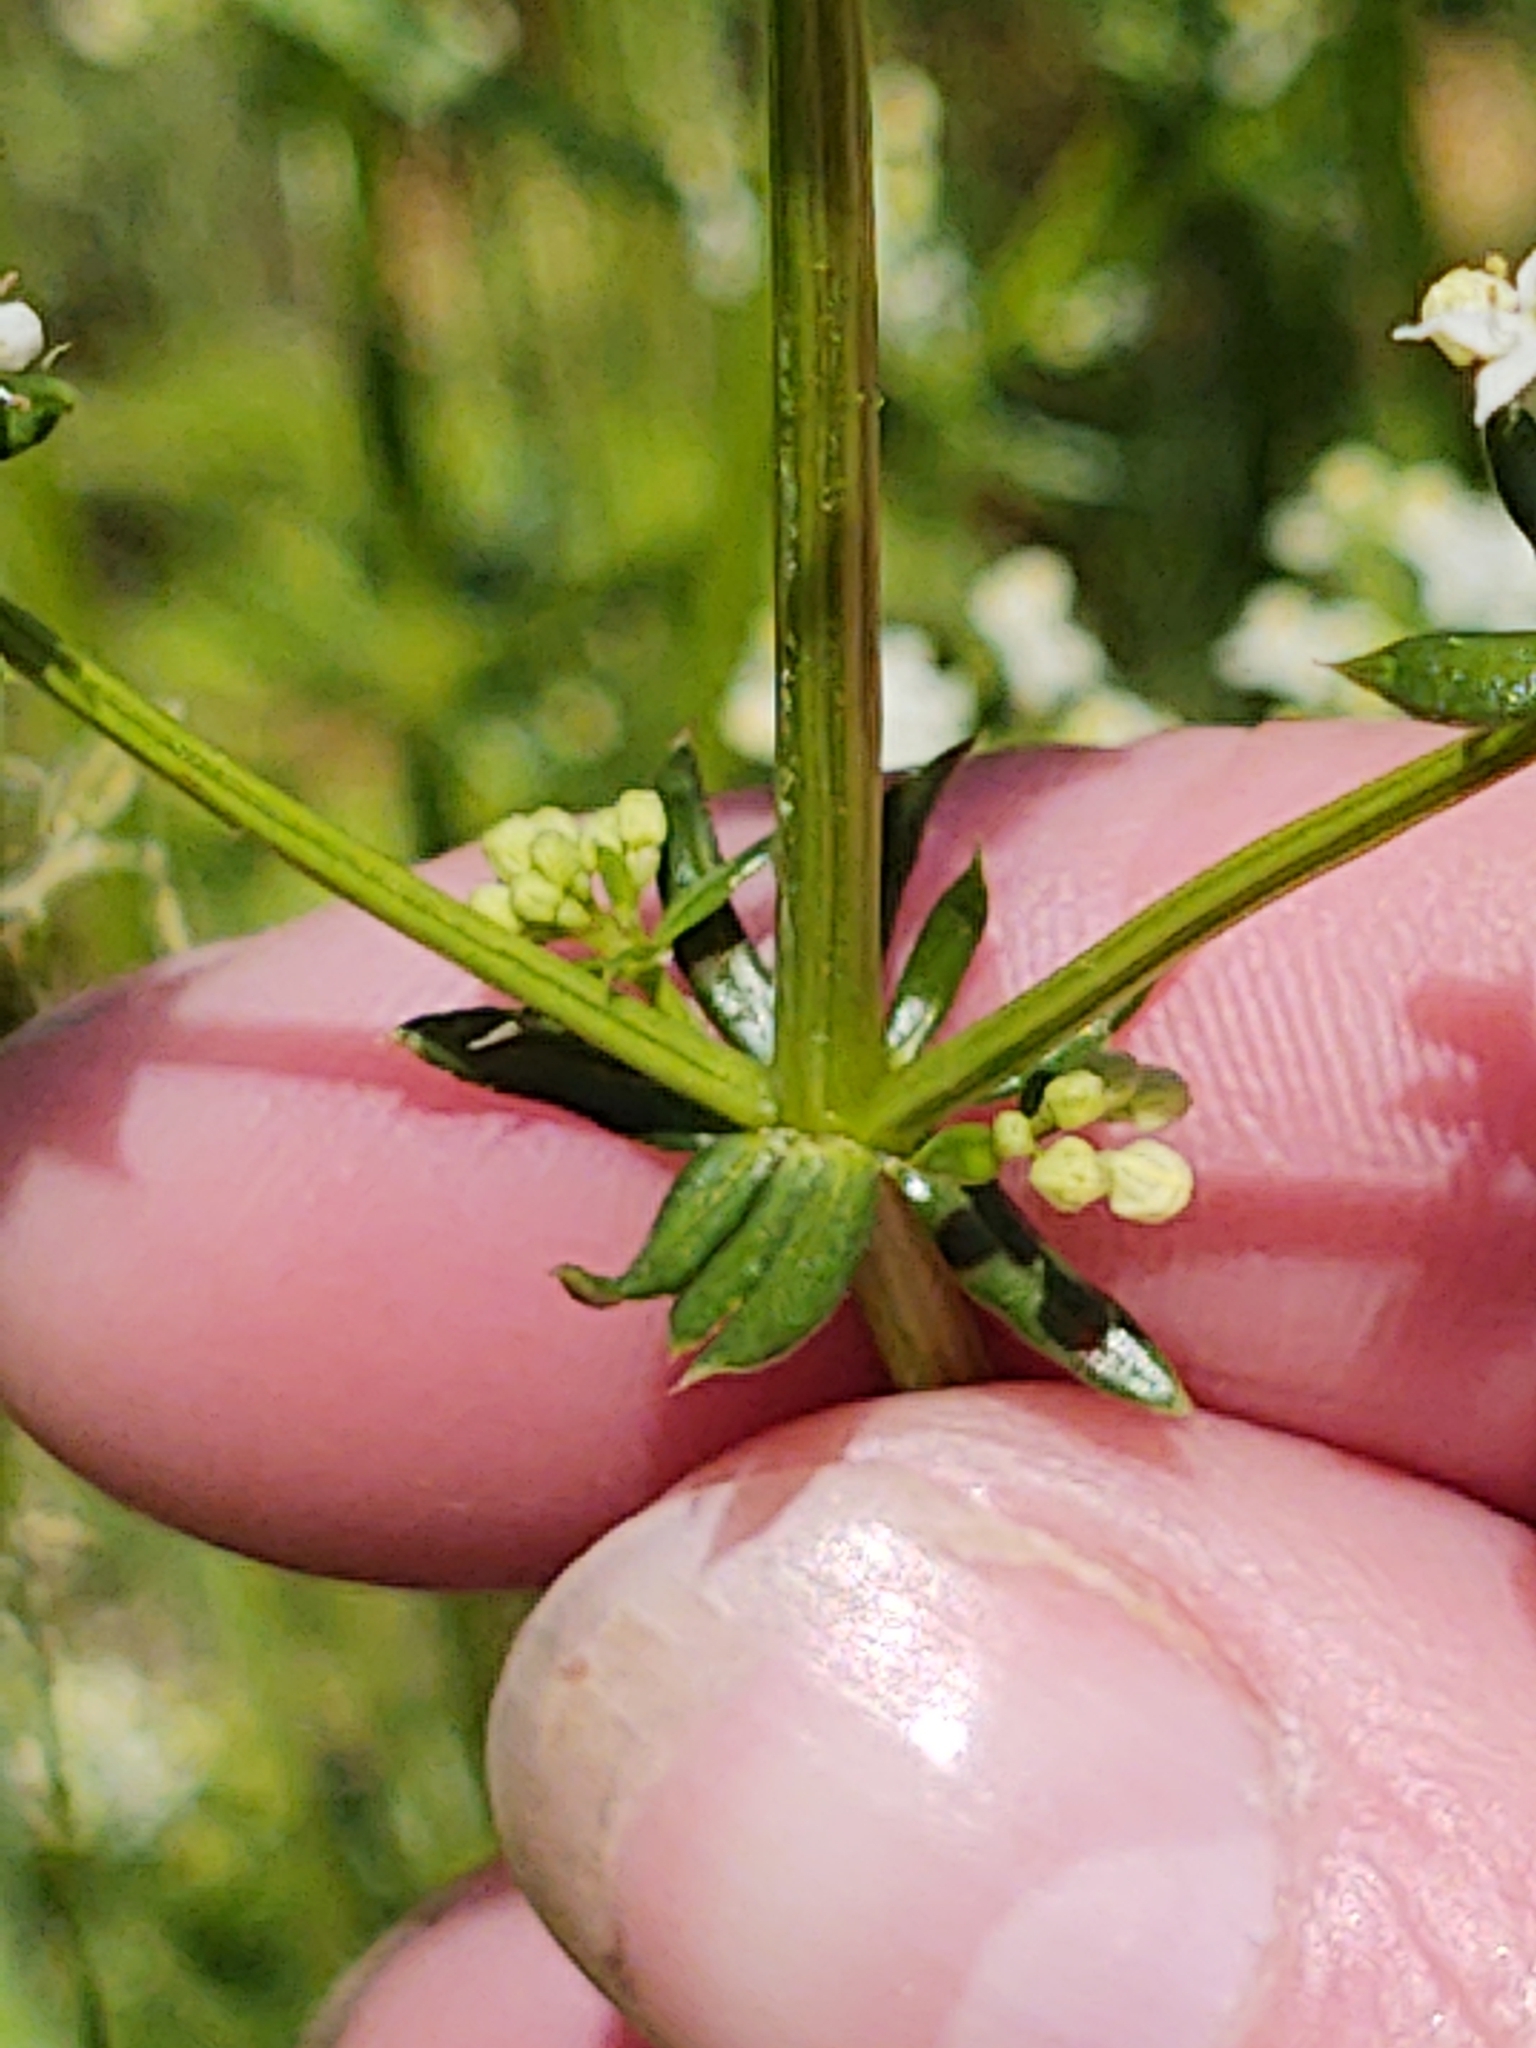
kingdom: Plantae
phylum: Tracheophyta
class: Magnoliopsida
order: Gentianales
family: Rubiaceae
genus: Galium
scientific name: Galium mollugo
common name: Hedge bedstraw
